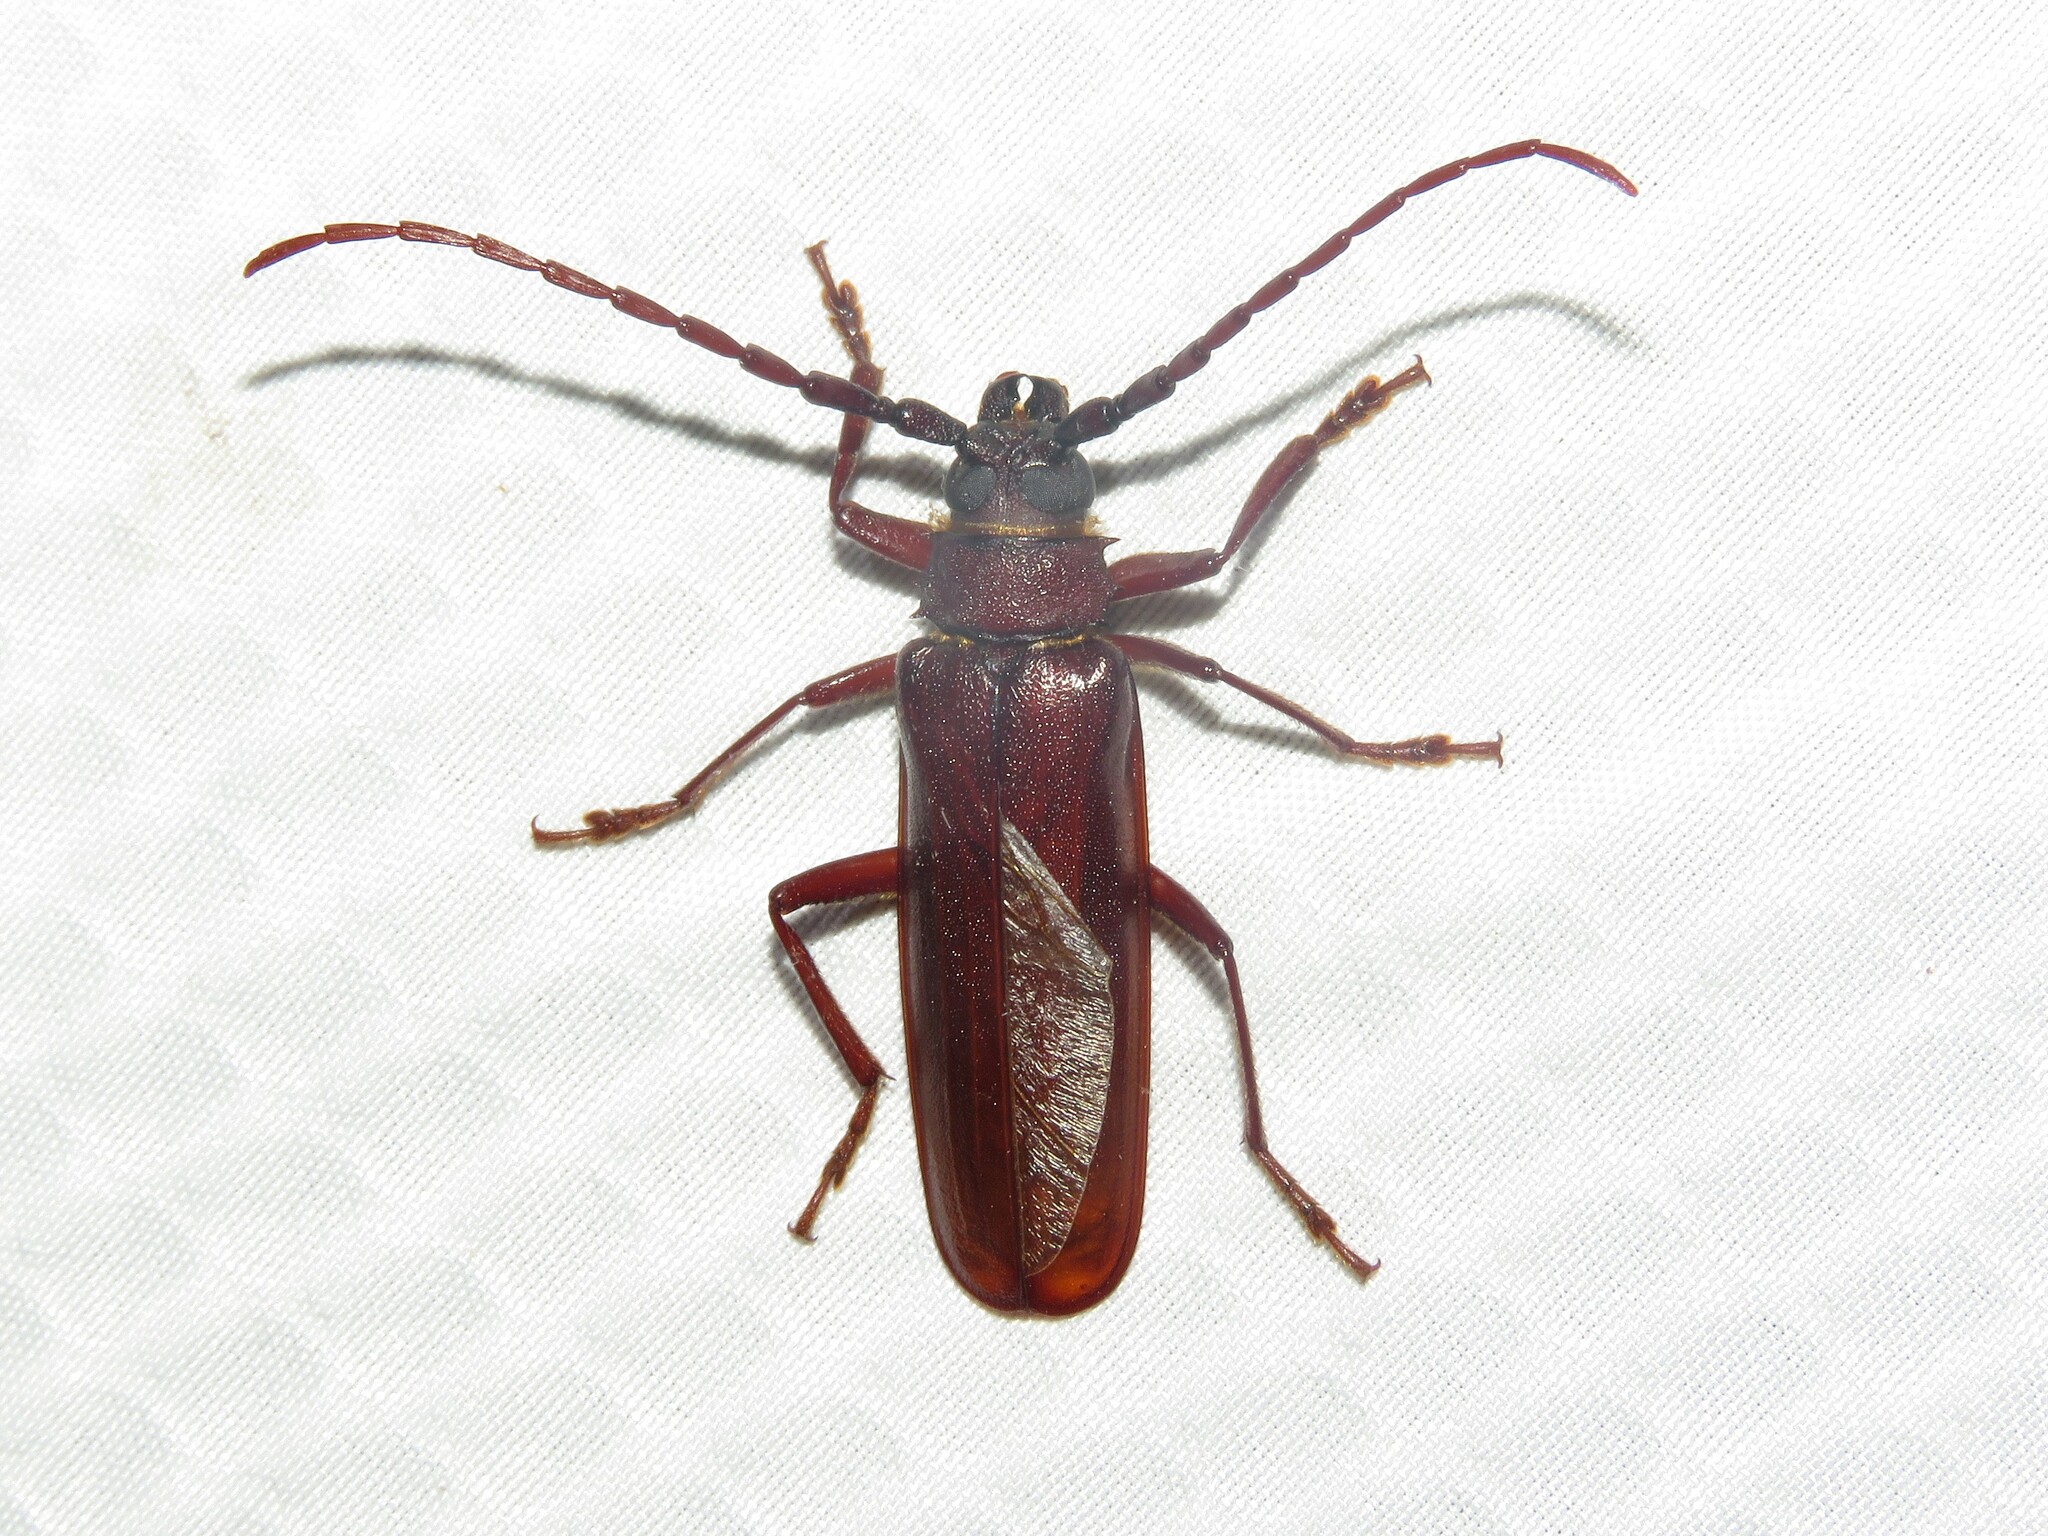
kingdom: Animalia
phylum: Arthropoda
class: Insecta
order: Coleoptera
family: Cerambycidae
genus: Orthosoma
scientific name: Orthosoma brunneum
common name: Brown prionid beetle
